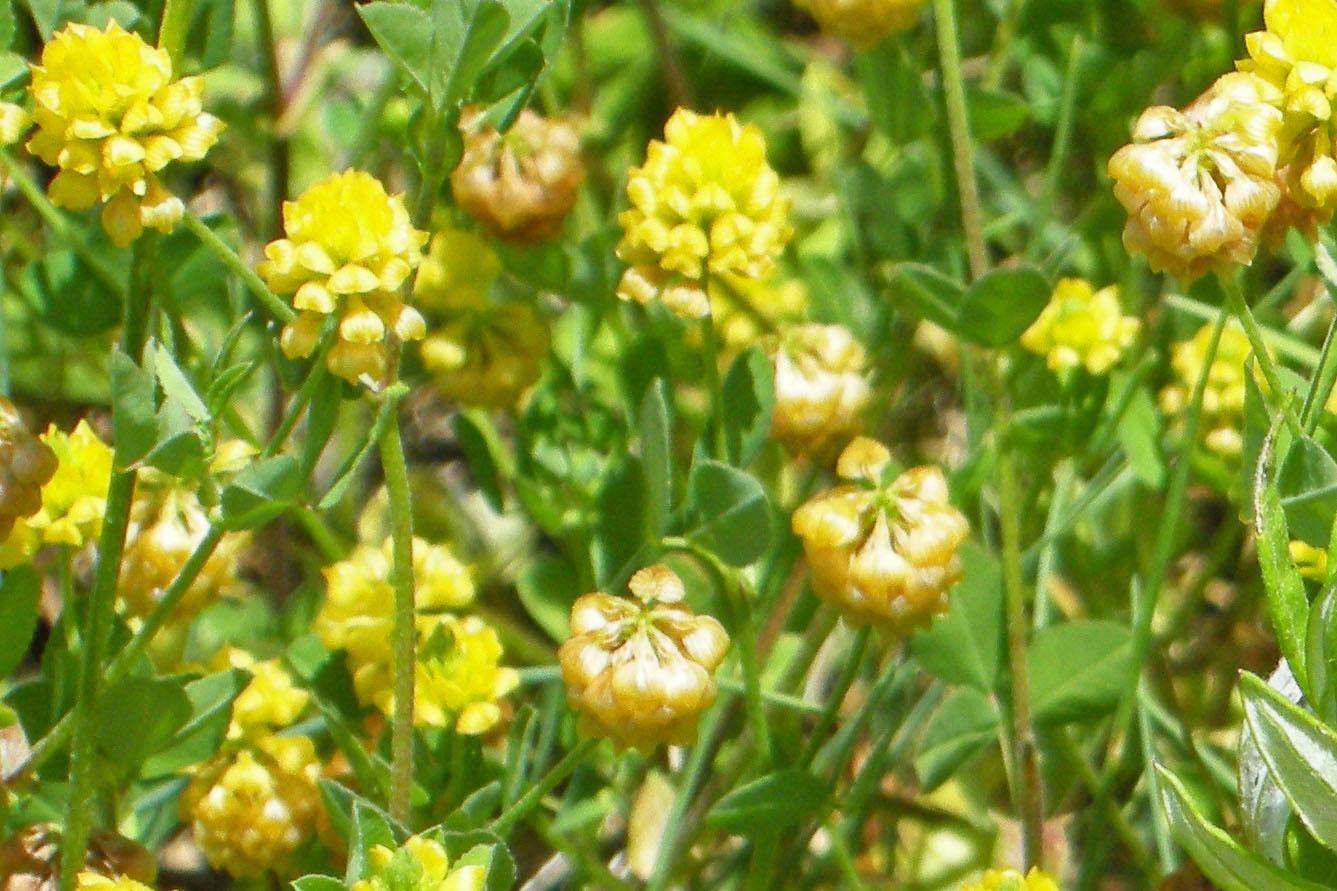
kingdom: Plantae
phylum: Tracheophyta
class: Magnoliopsida
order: Fabales
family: Fabaceae
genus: Trifolium
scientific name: Trifolium campestre
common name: Field clover
